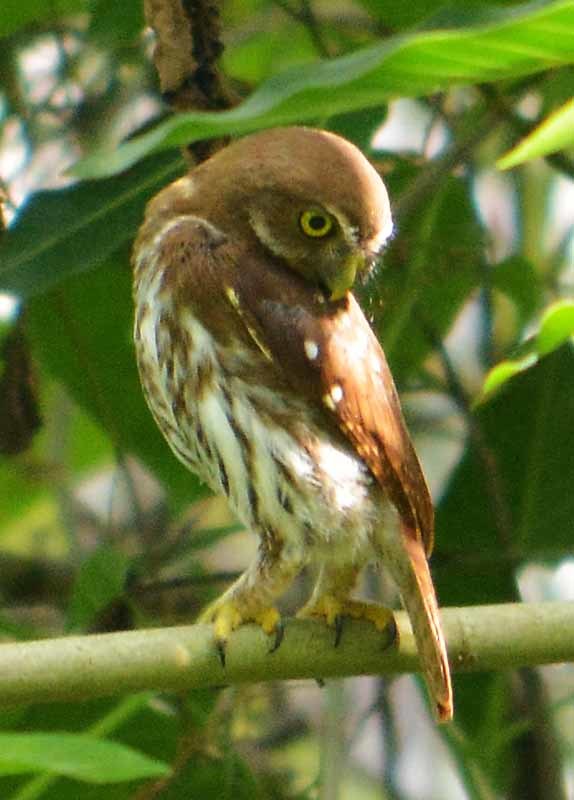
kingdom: Animalia
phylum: Chordata
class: Aves
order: Strigiformes
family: Strigidae
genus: Glaucidium
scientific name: Glaucidium brasilianum
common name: Ferruginous pygmy-owl
